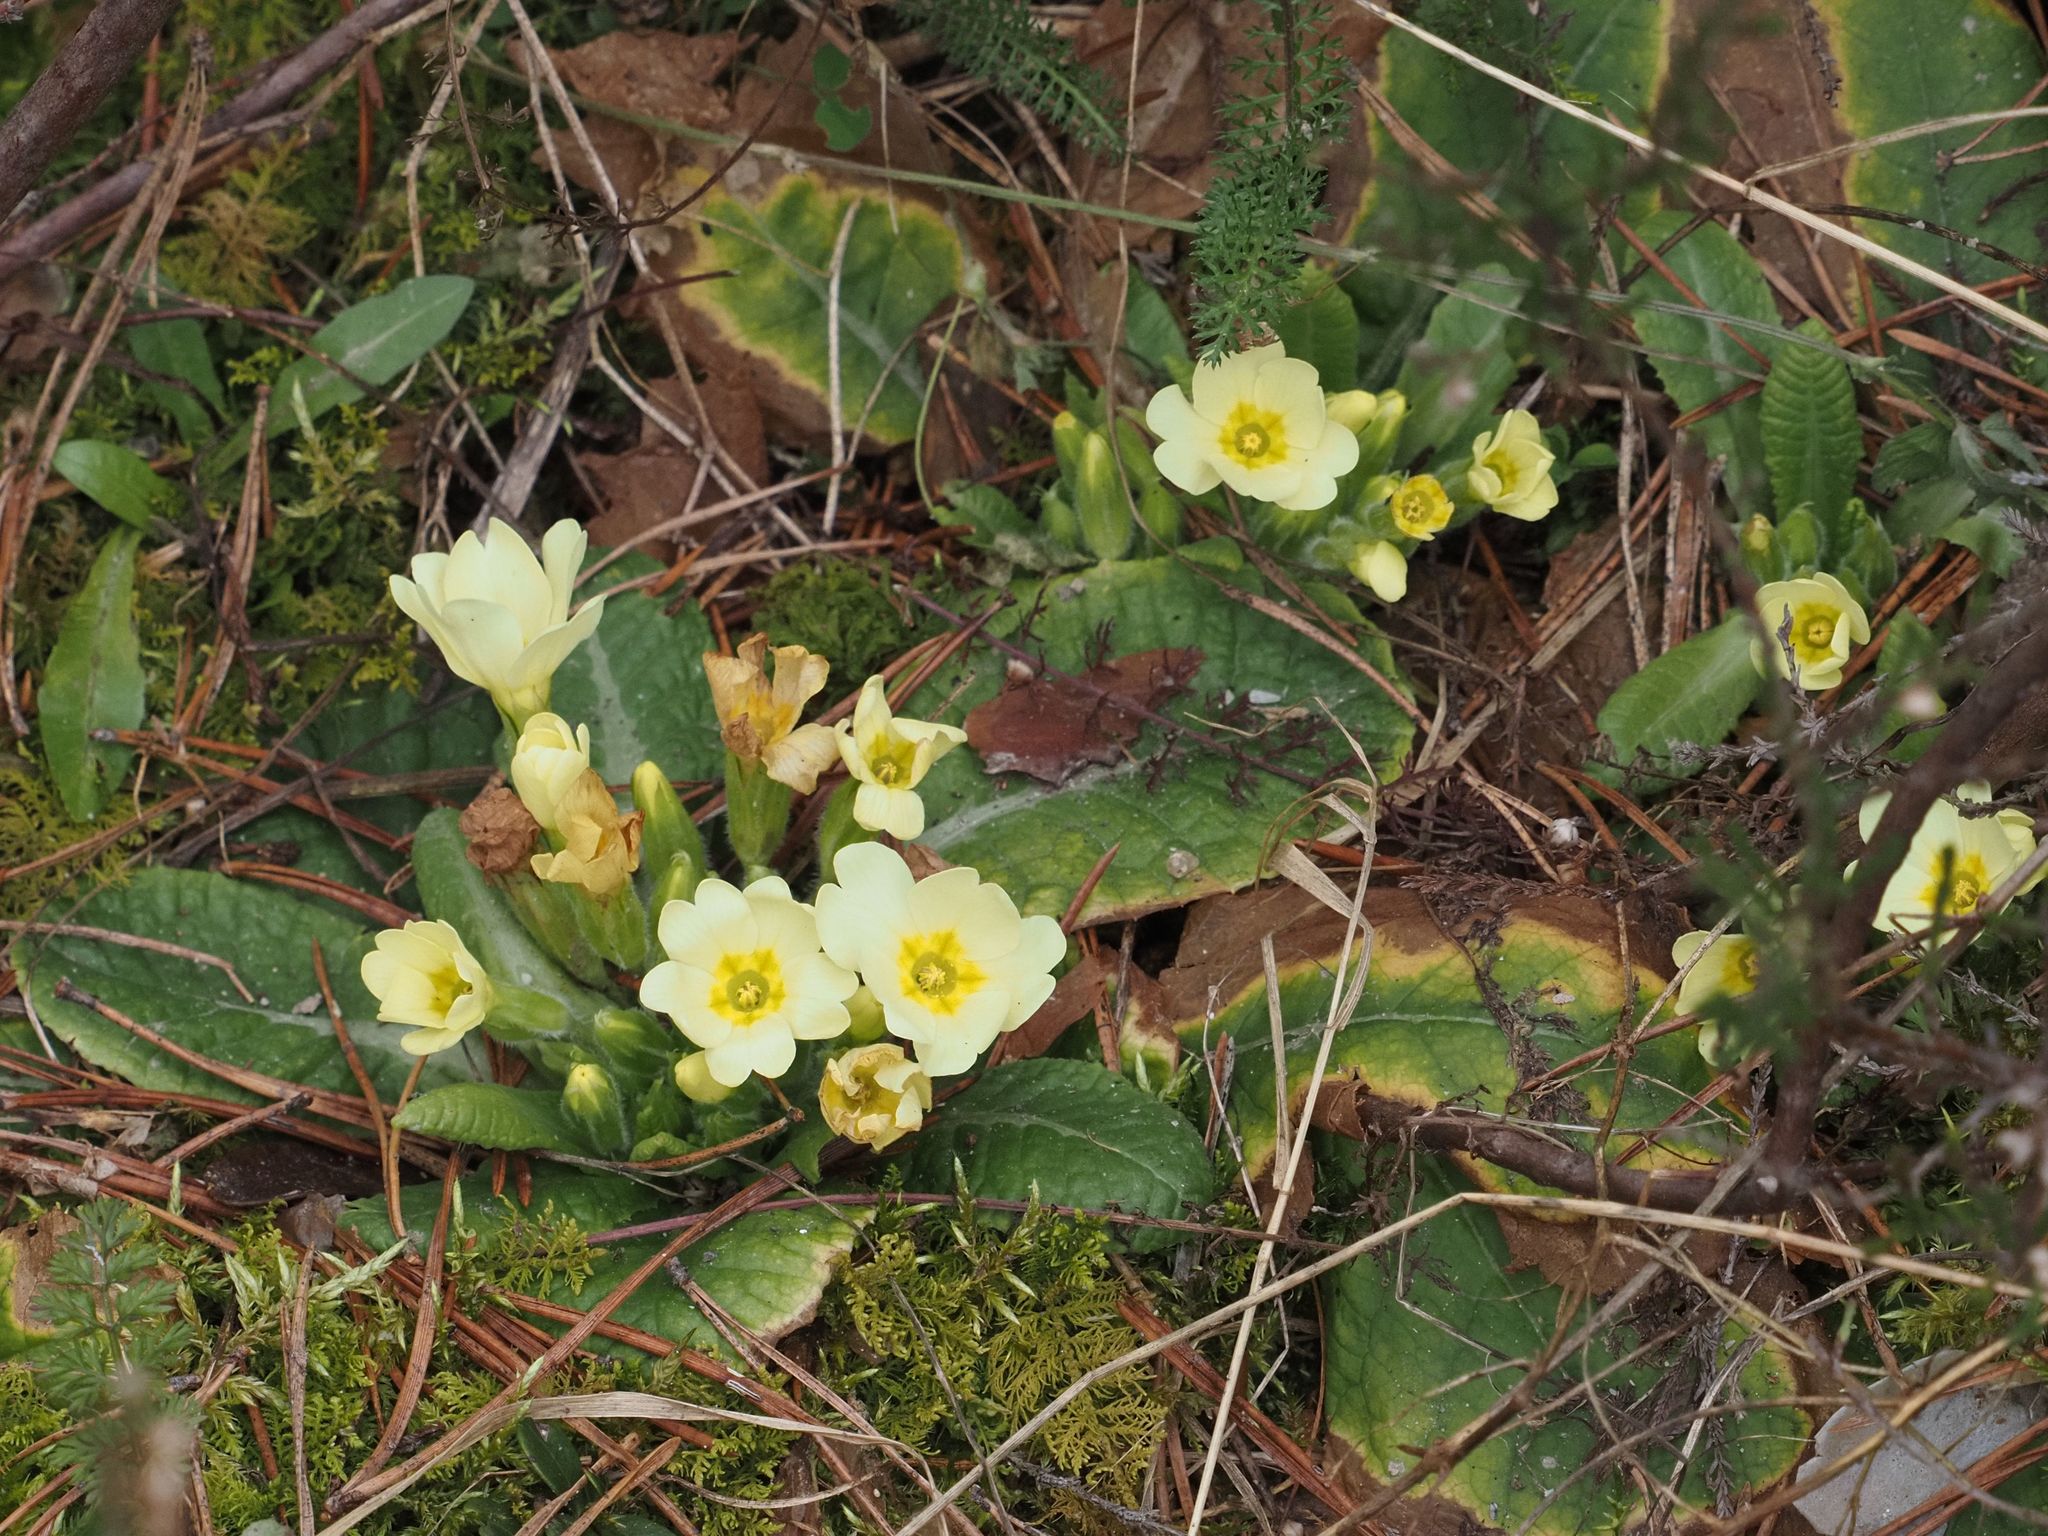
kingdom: Plantae
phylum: Tracheophyta
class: Magnoliopsida
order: Ericales
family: Primulaceae
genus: Primula
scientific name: Primula vulgaris
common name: Primrose
